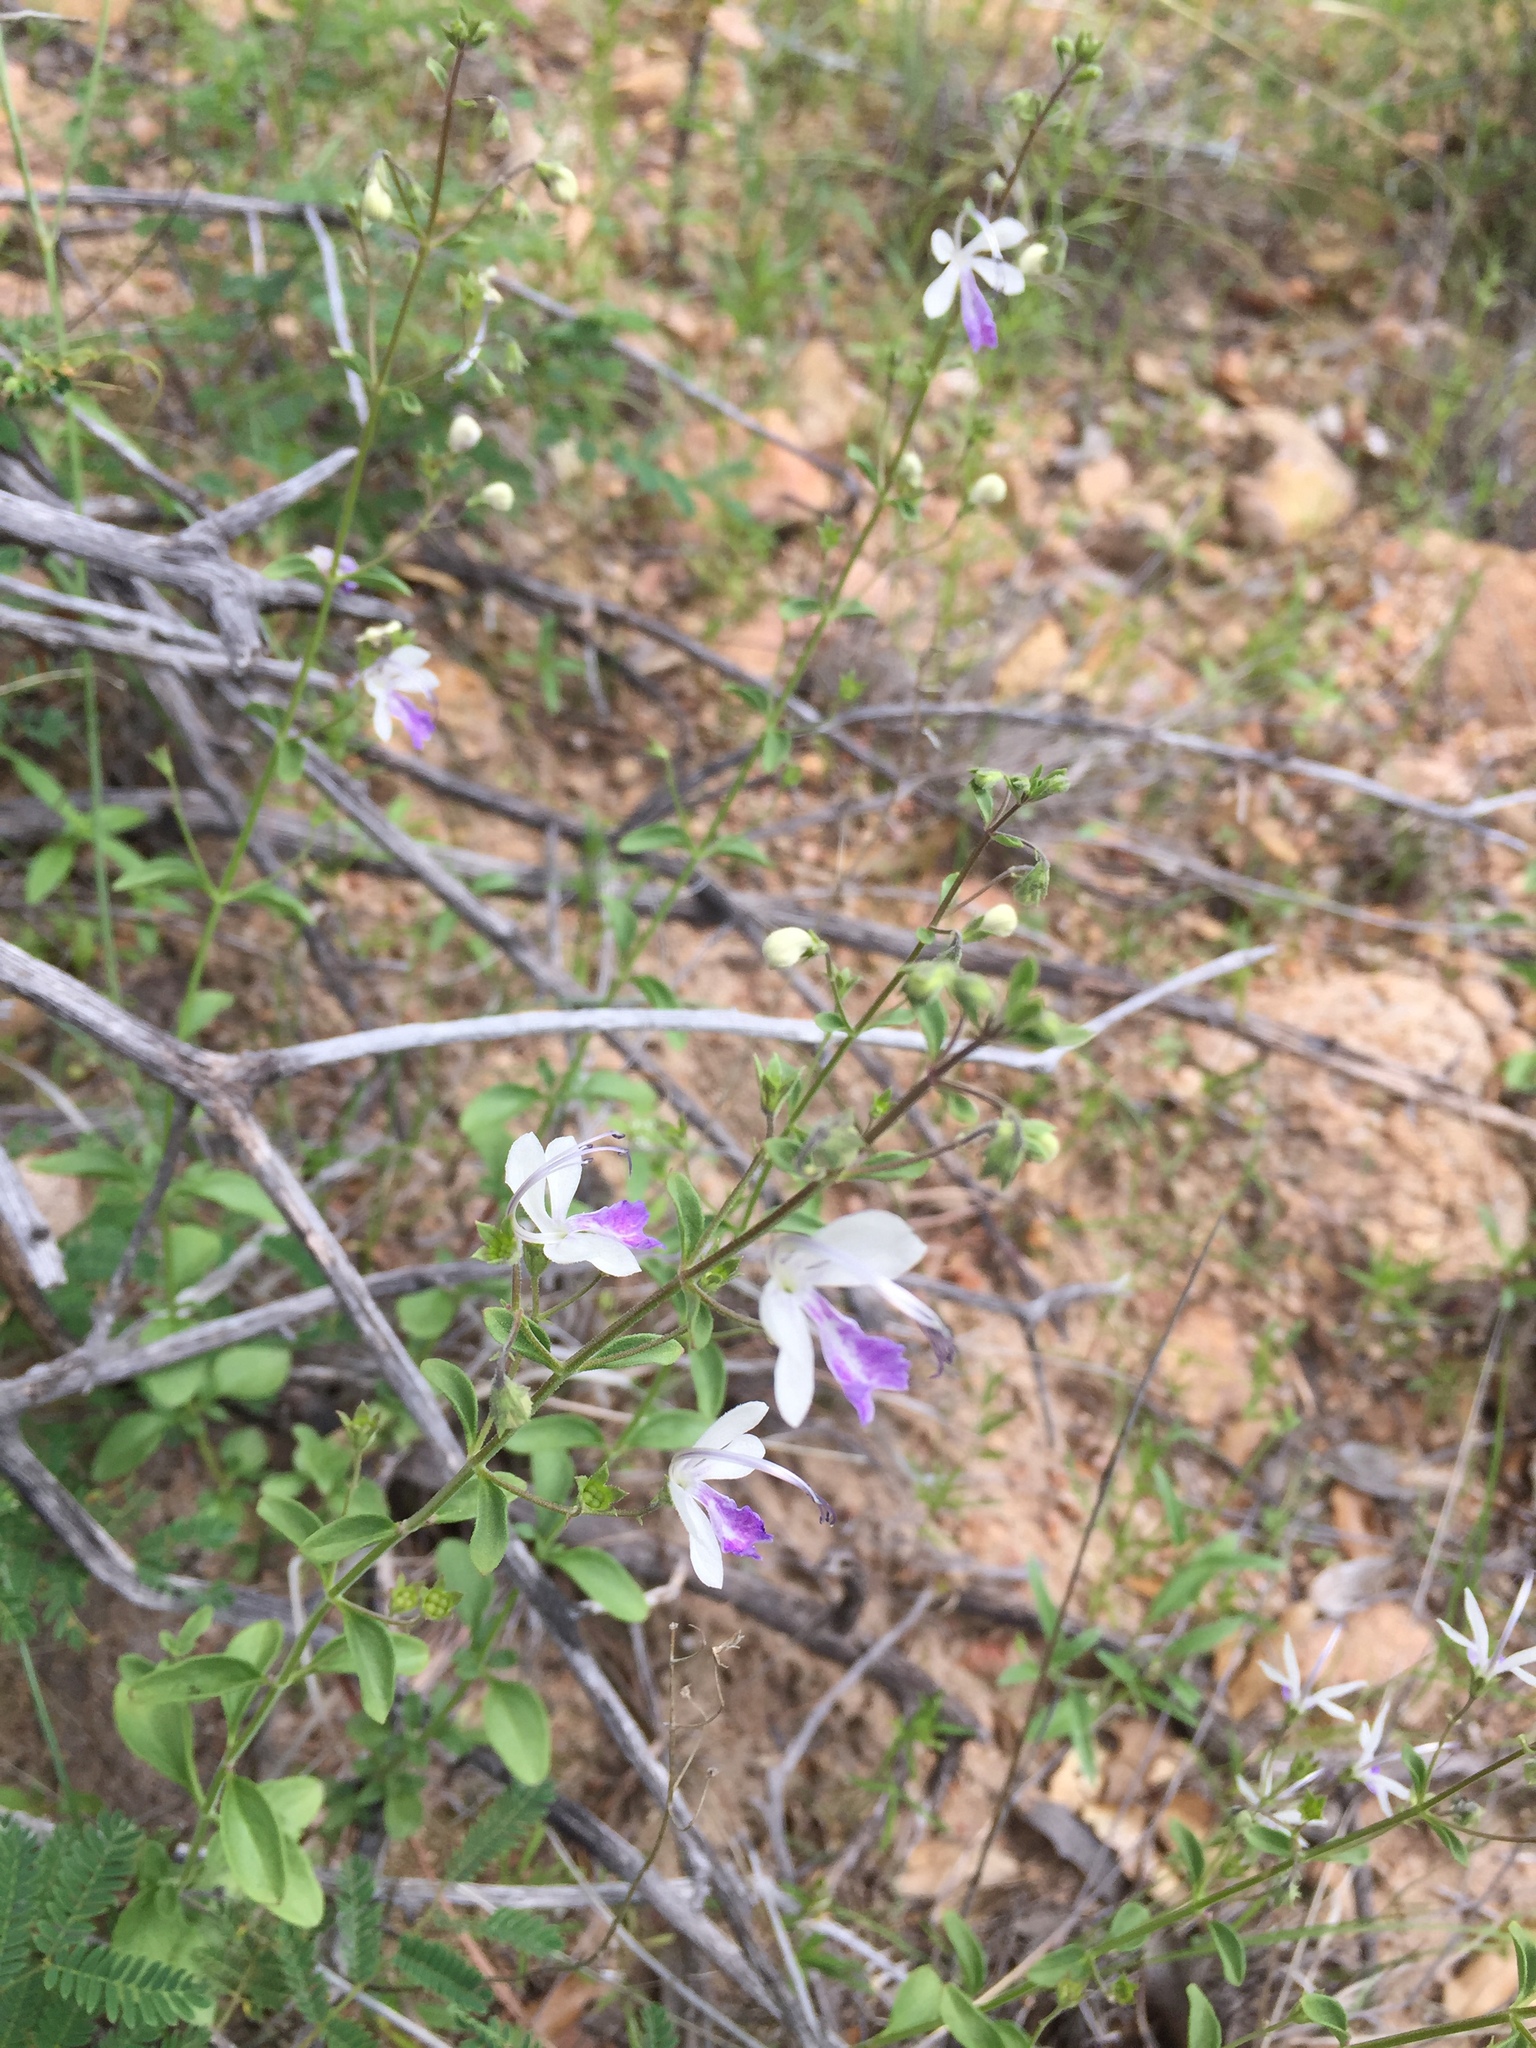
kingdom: Plantae
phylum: Tracheophyta
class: Magnoliopsida
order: Lamiales
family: Lamiaceae
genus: Trichostema
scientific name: Trichostema arizonicum
